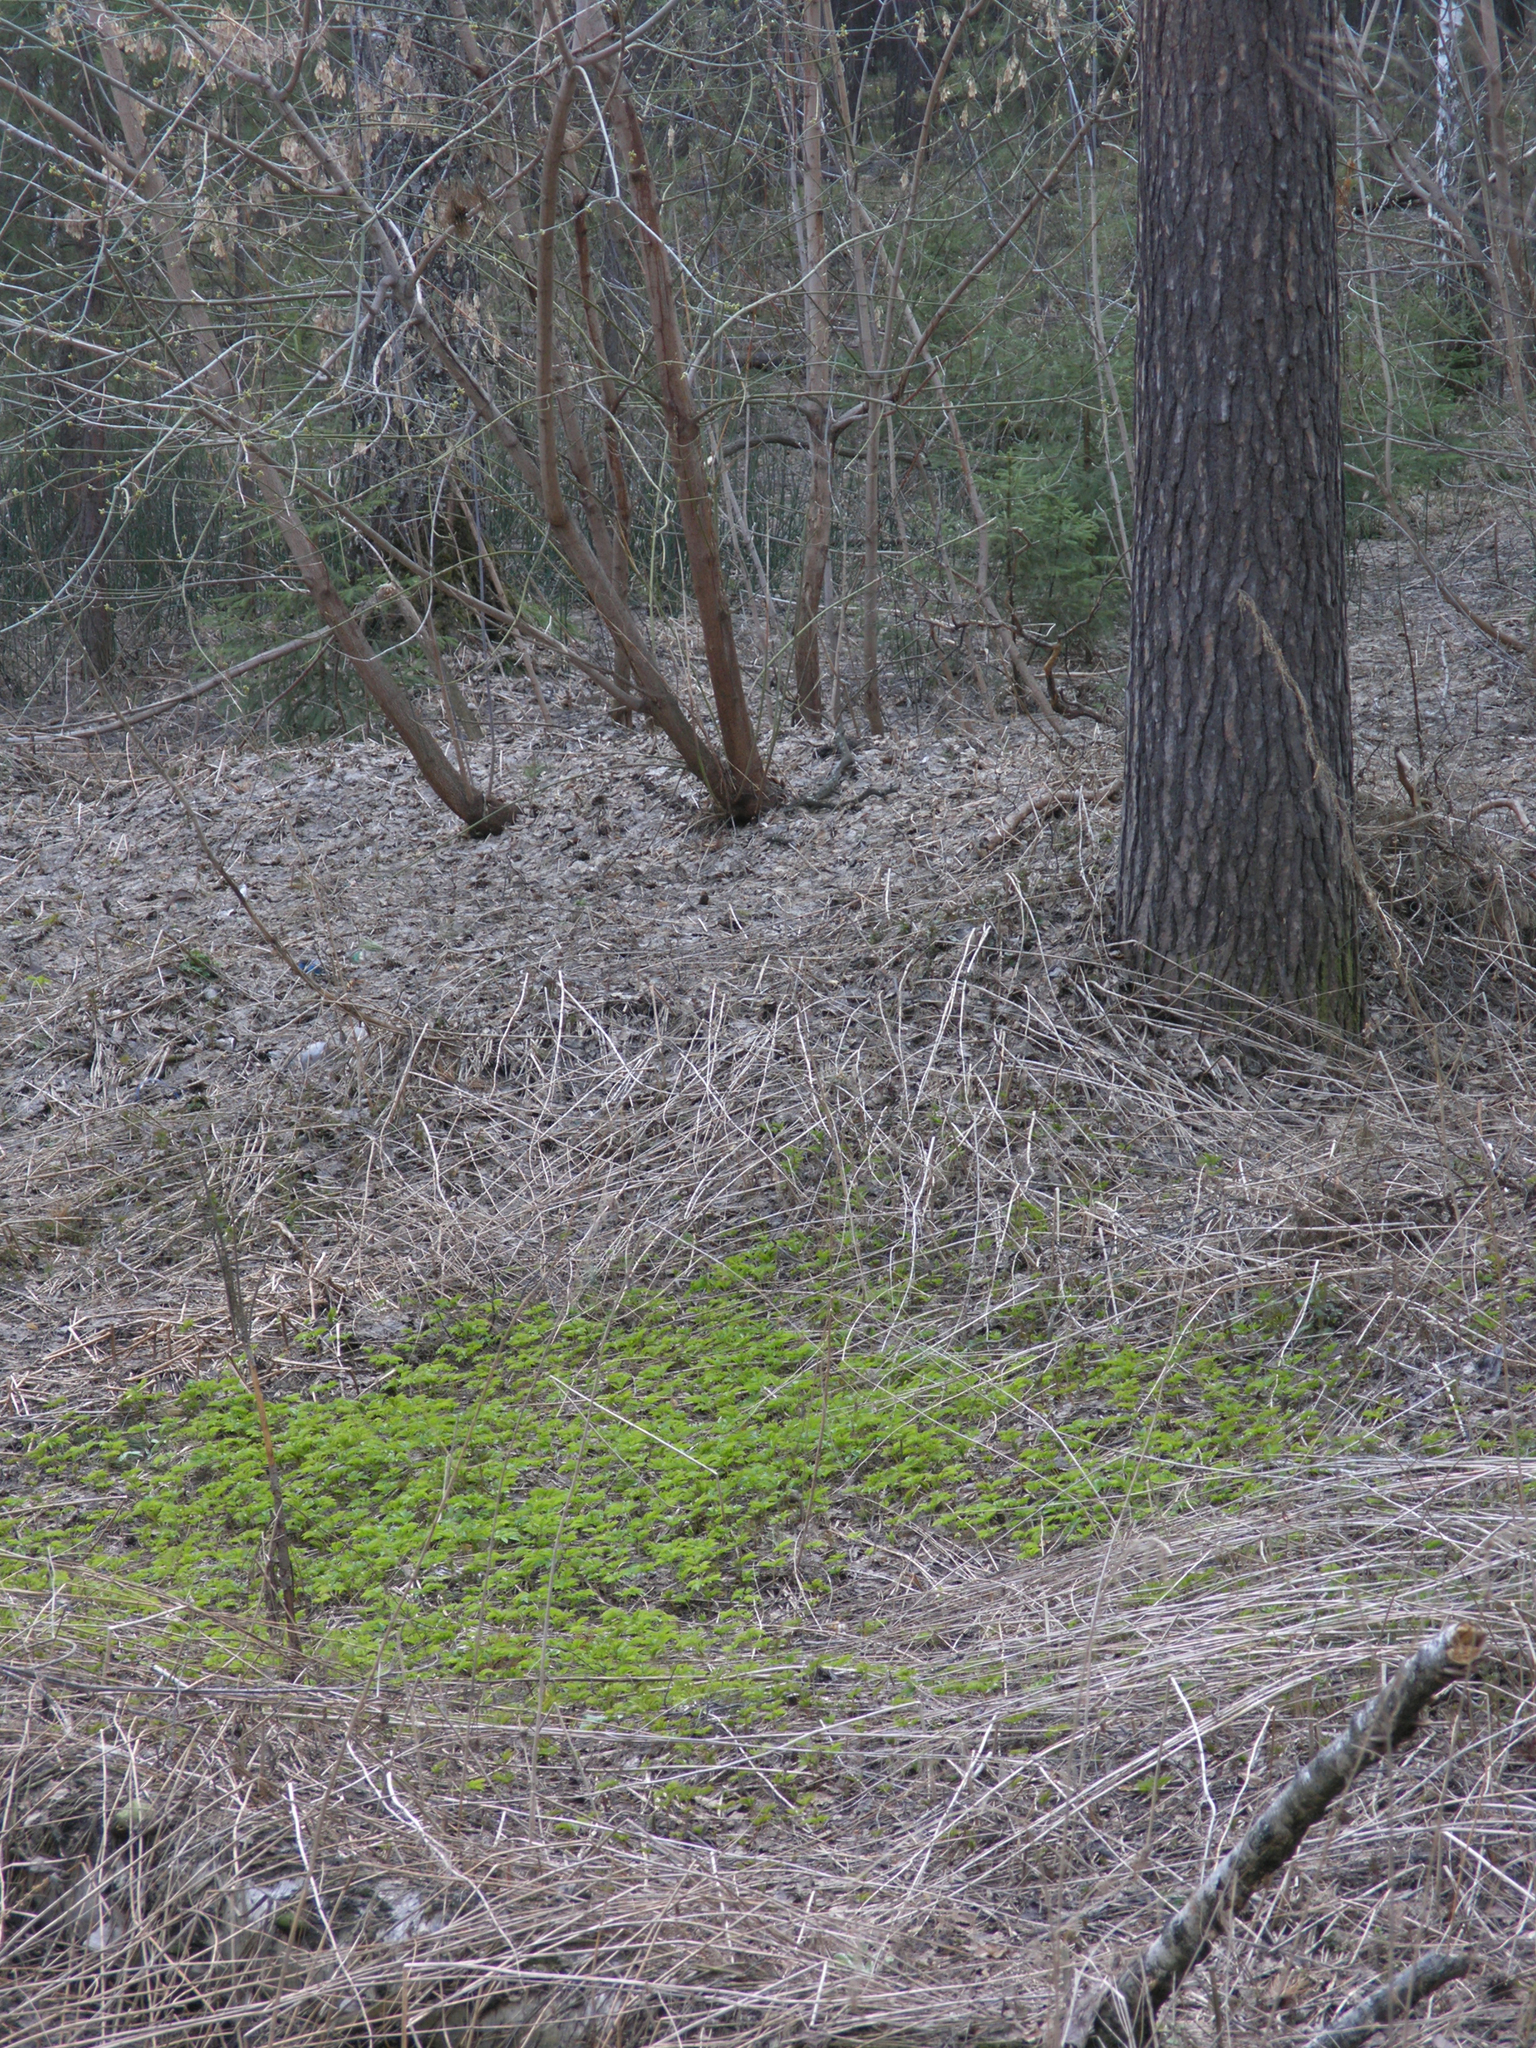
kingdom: Plantae
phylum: Tracheophyta
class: Magnoliopsida
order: Apiales
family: Apiaceae
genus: Aegopodium
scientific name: Aegopodium podagraria
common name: Ground-elder
